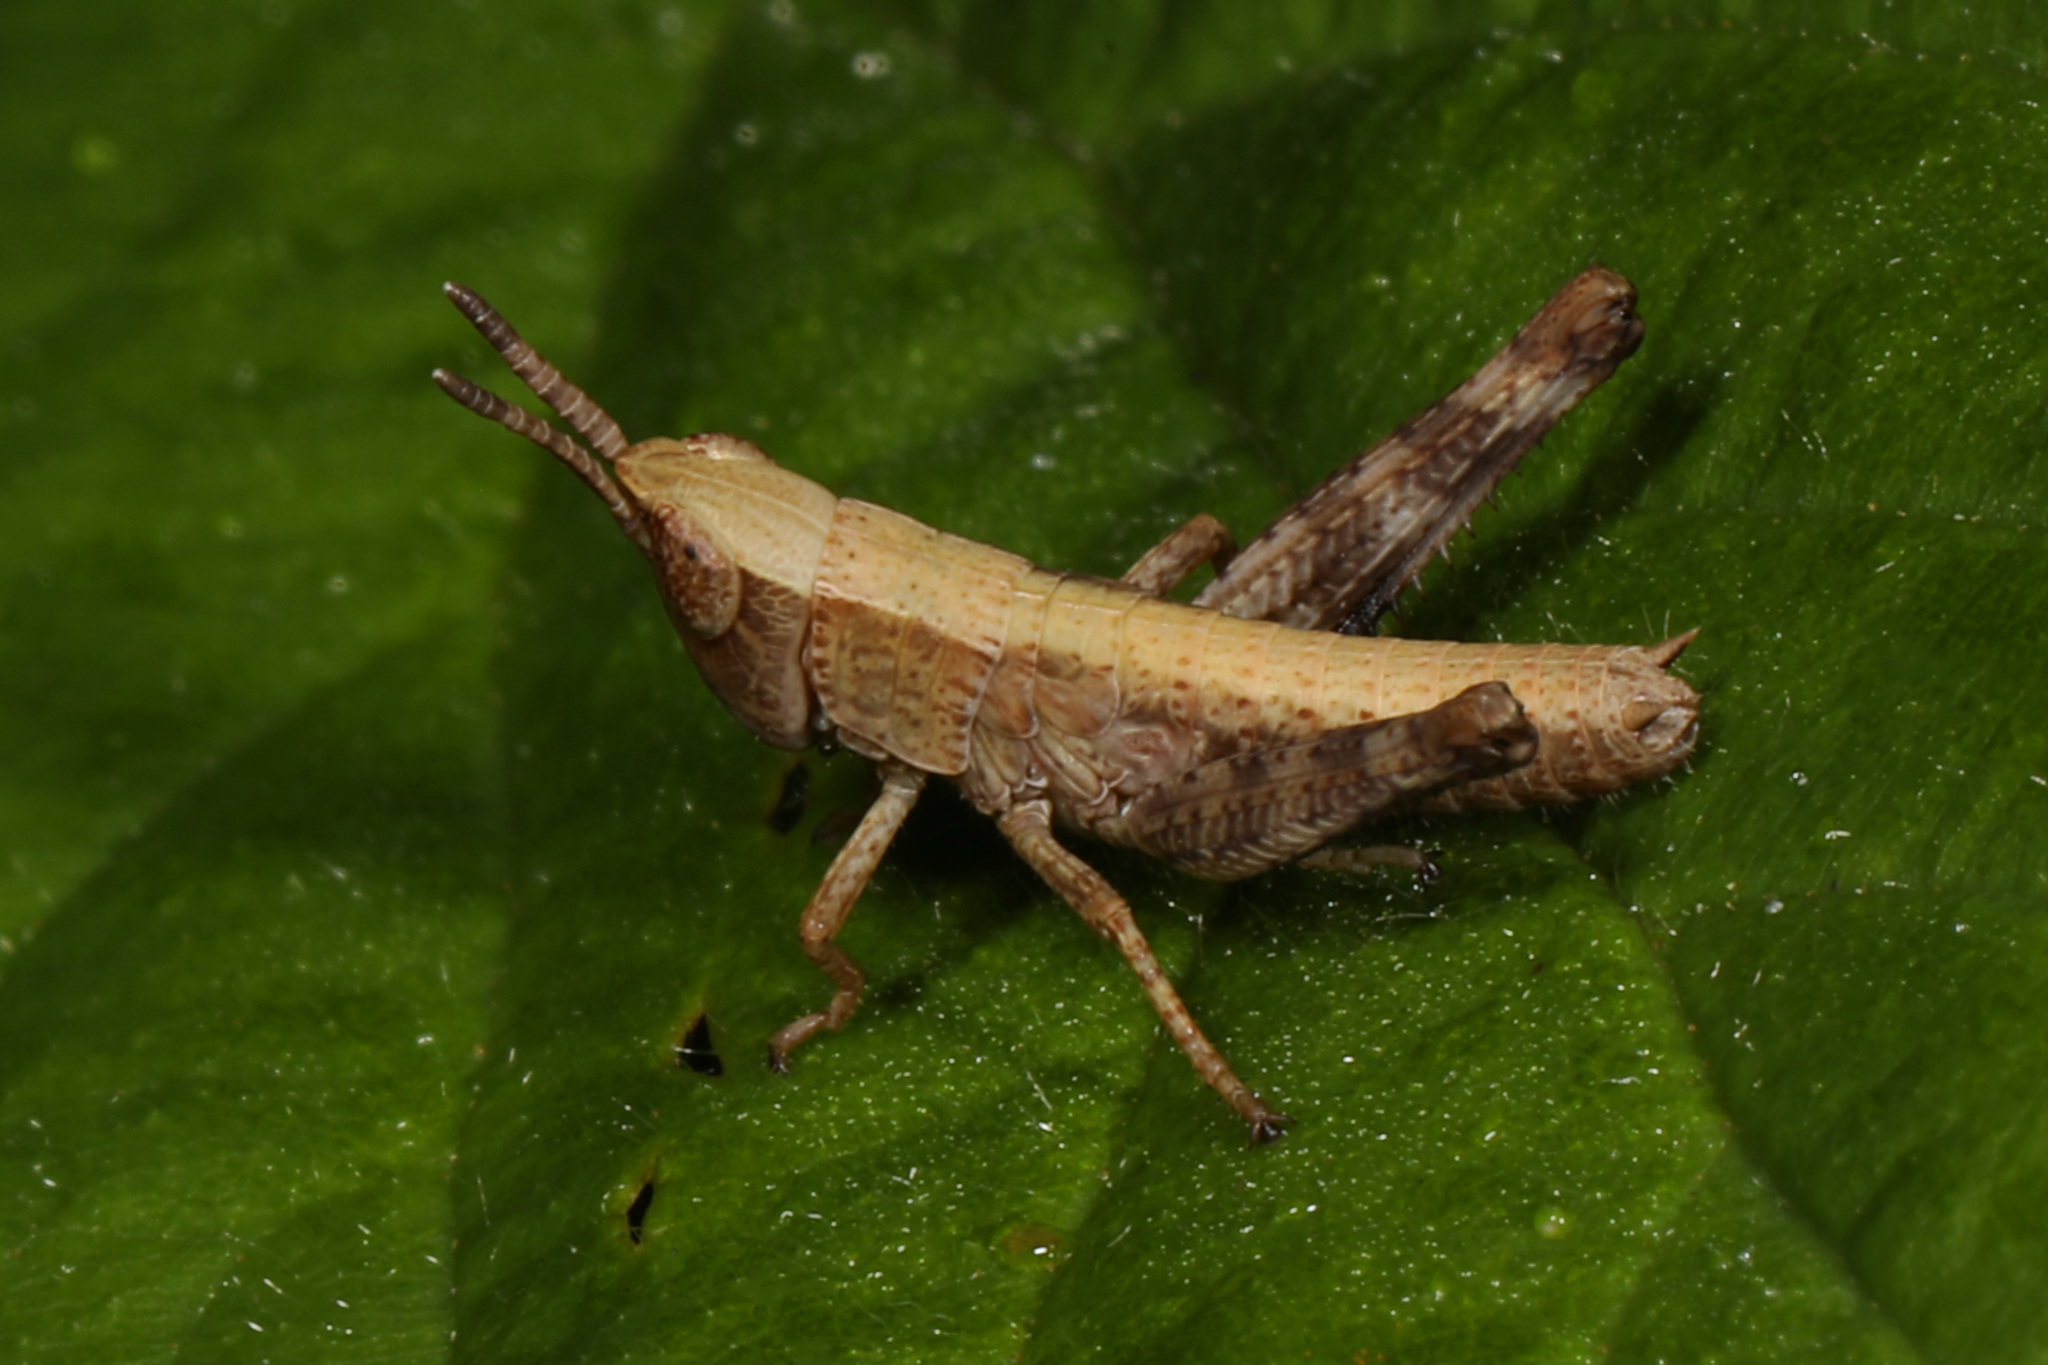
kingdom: Animalia
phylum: Arthropoda
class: Insecta
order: Orthoptera
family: Acrididae
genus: Dichromorpha
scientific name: Dichromorpha viridis
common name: Short-winged green grasshopper
